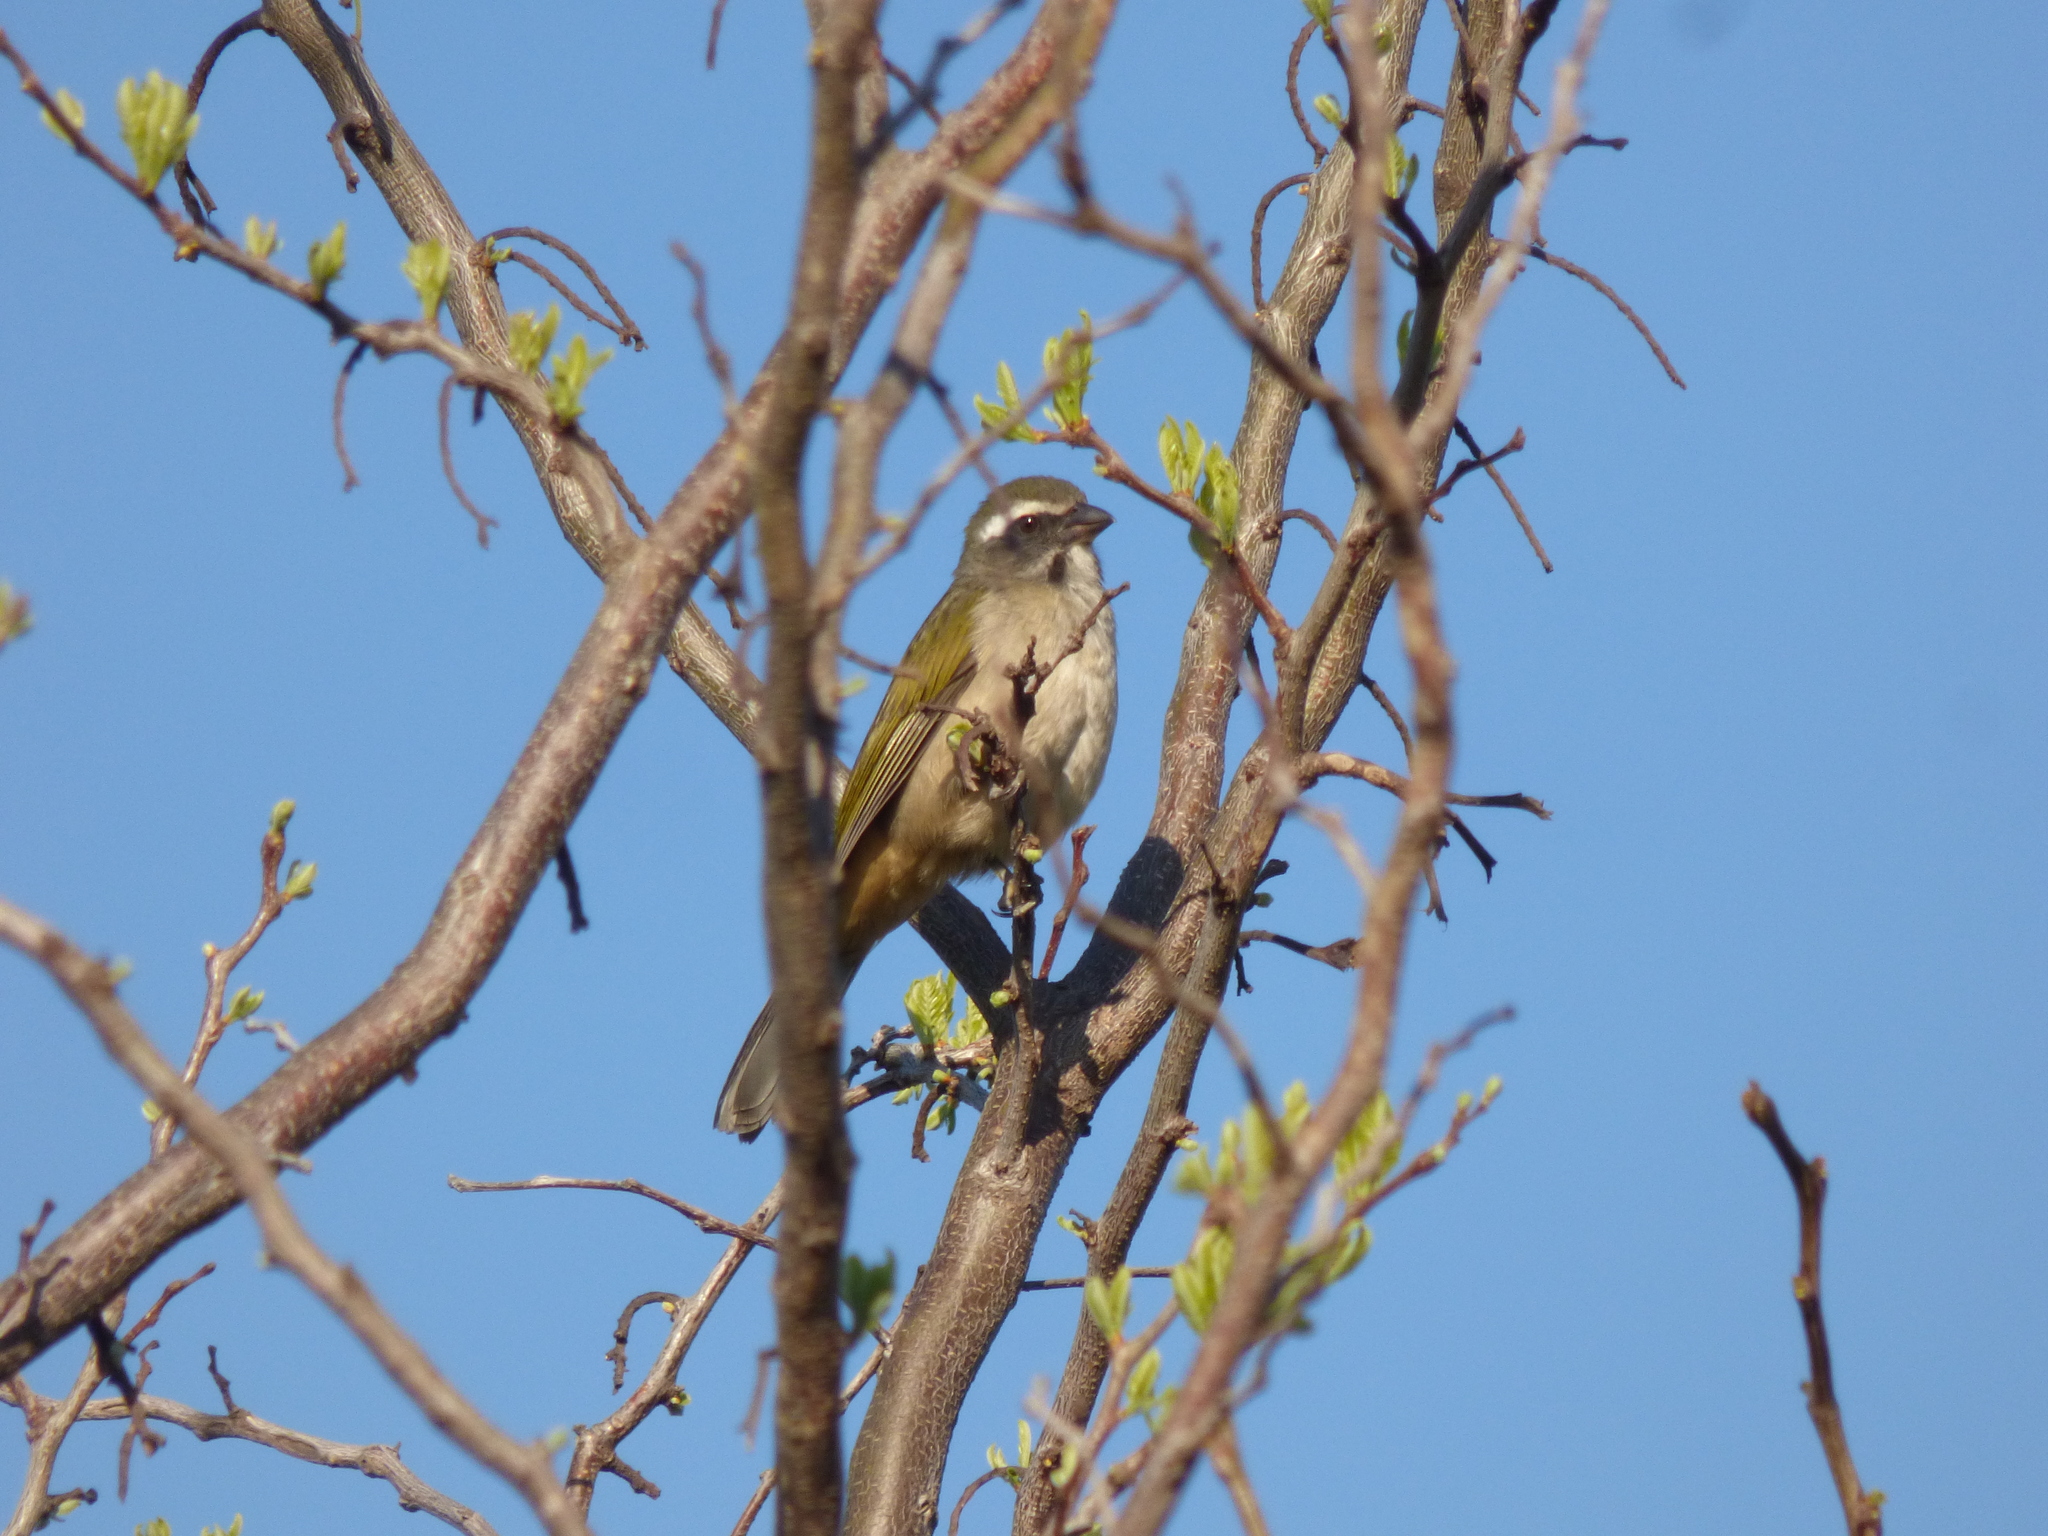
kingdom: Animalia
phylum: Chordata
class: Aves
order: Passeriformes
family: Thraupidae
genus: Saltator
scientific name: Saltator similis
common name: Green-winged saltator
